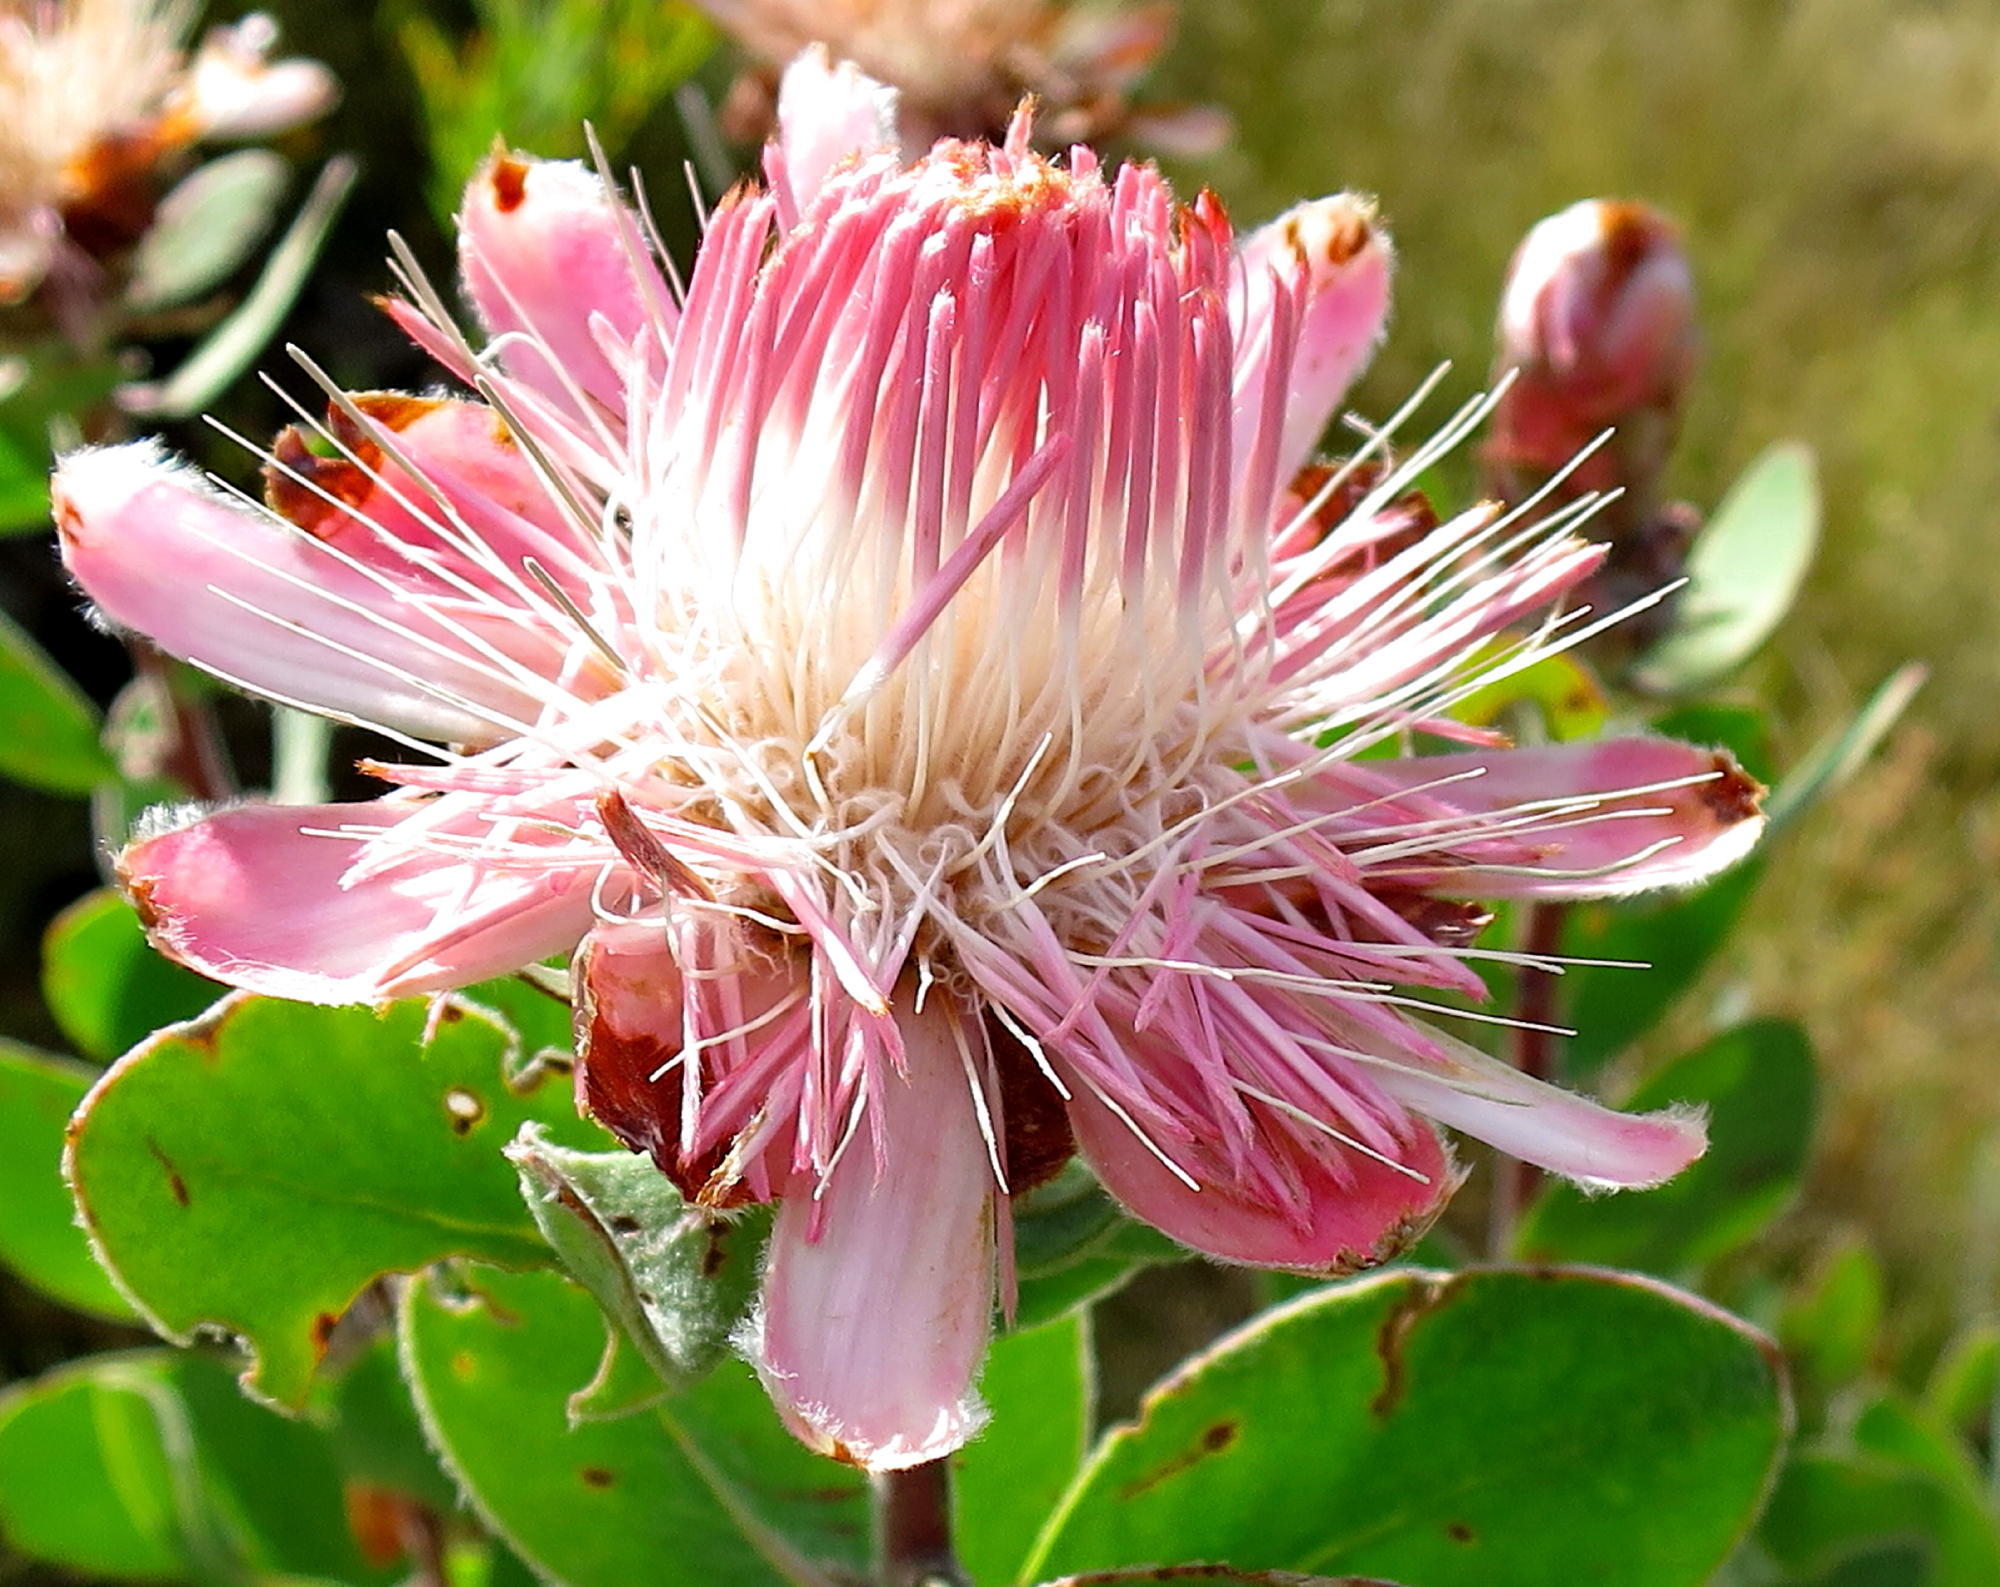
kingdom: Plantae
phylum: Tracheophyta
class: Magnoliopsida
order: Proteales
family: Proteaceae
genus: Protea
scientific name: Protea punctata
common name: Water sugarbush
